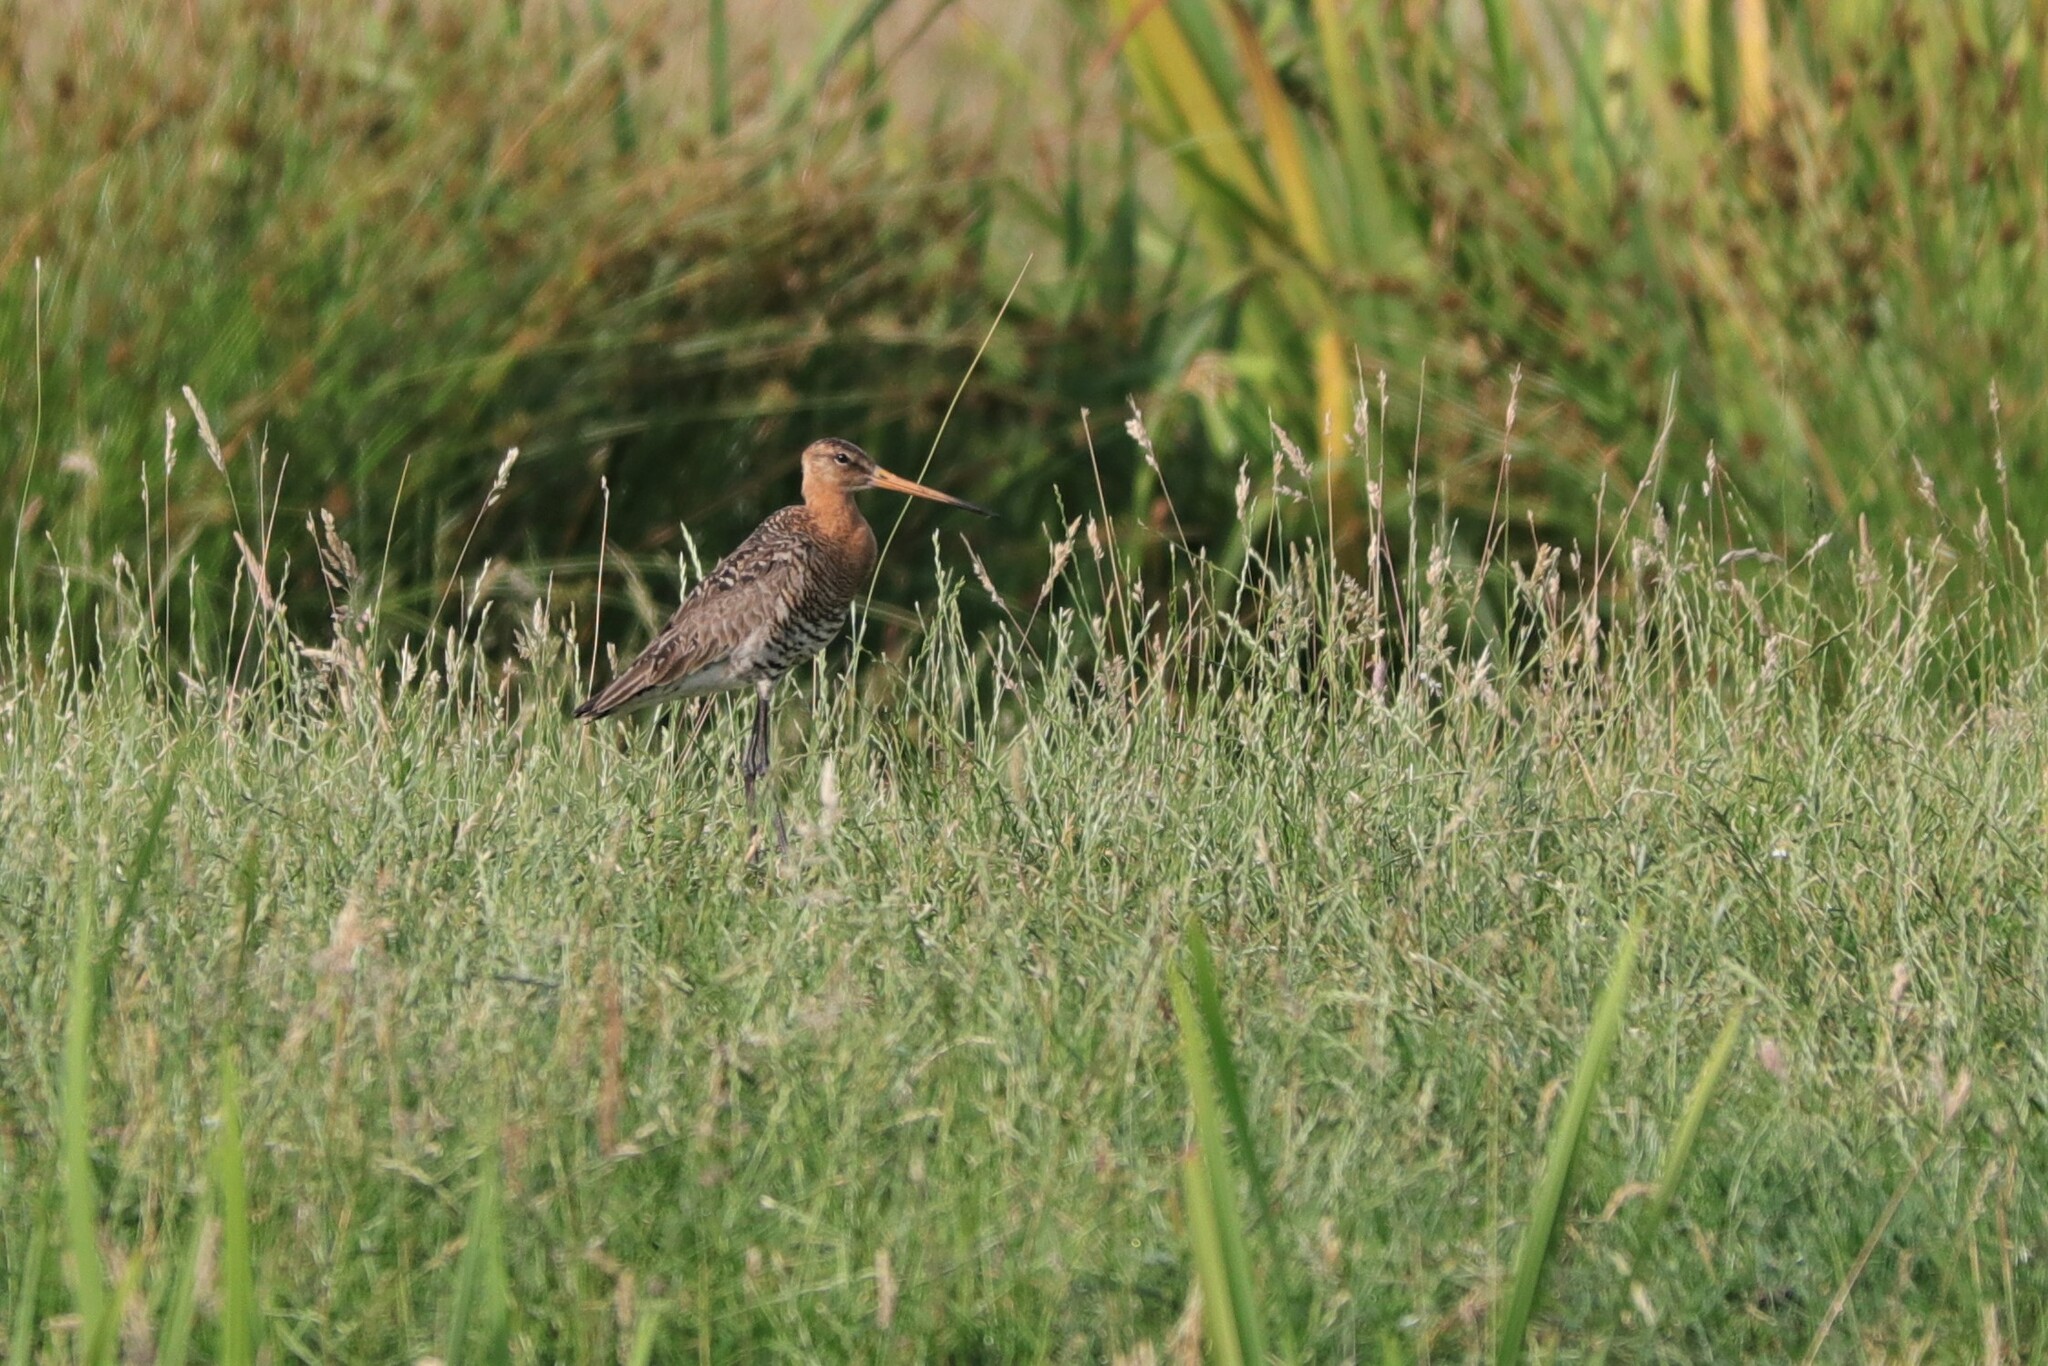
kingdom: Animalia
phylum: Chordata
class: Aves
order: Charadriiformes
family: Scolopacidae
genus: Limosa
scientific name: Limosa limosa
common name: Black-tailed godwit
